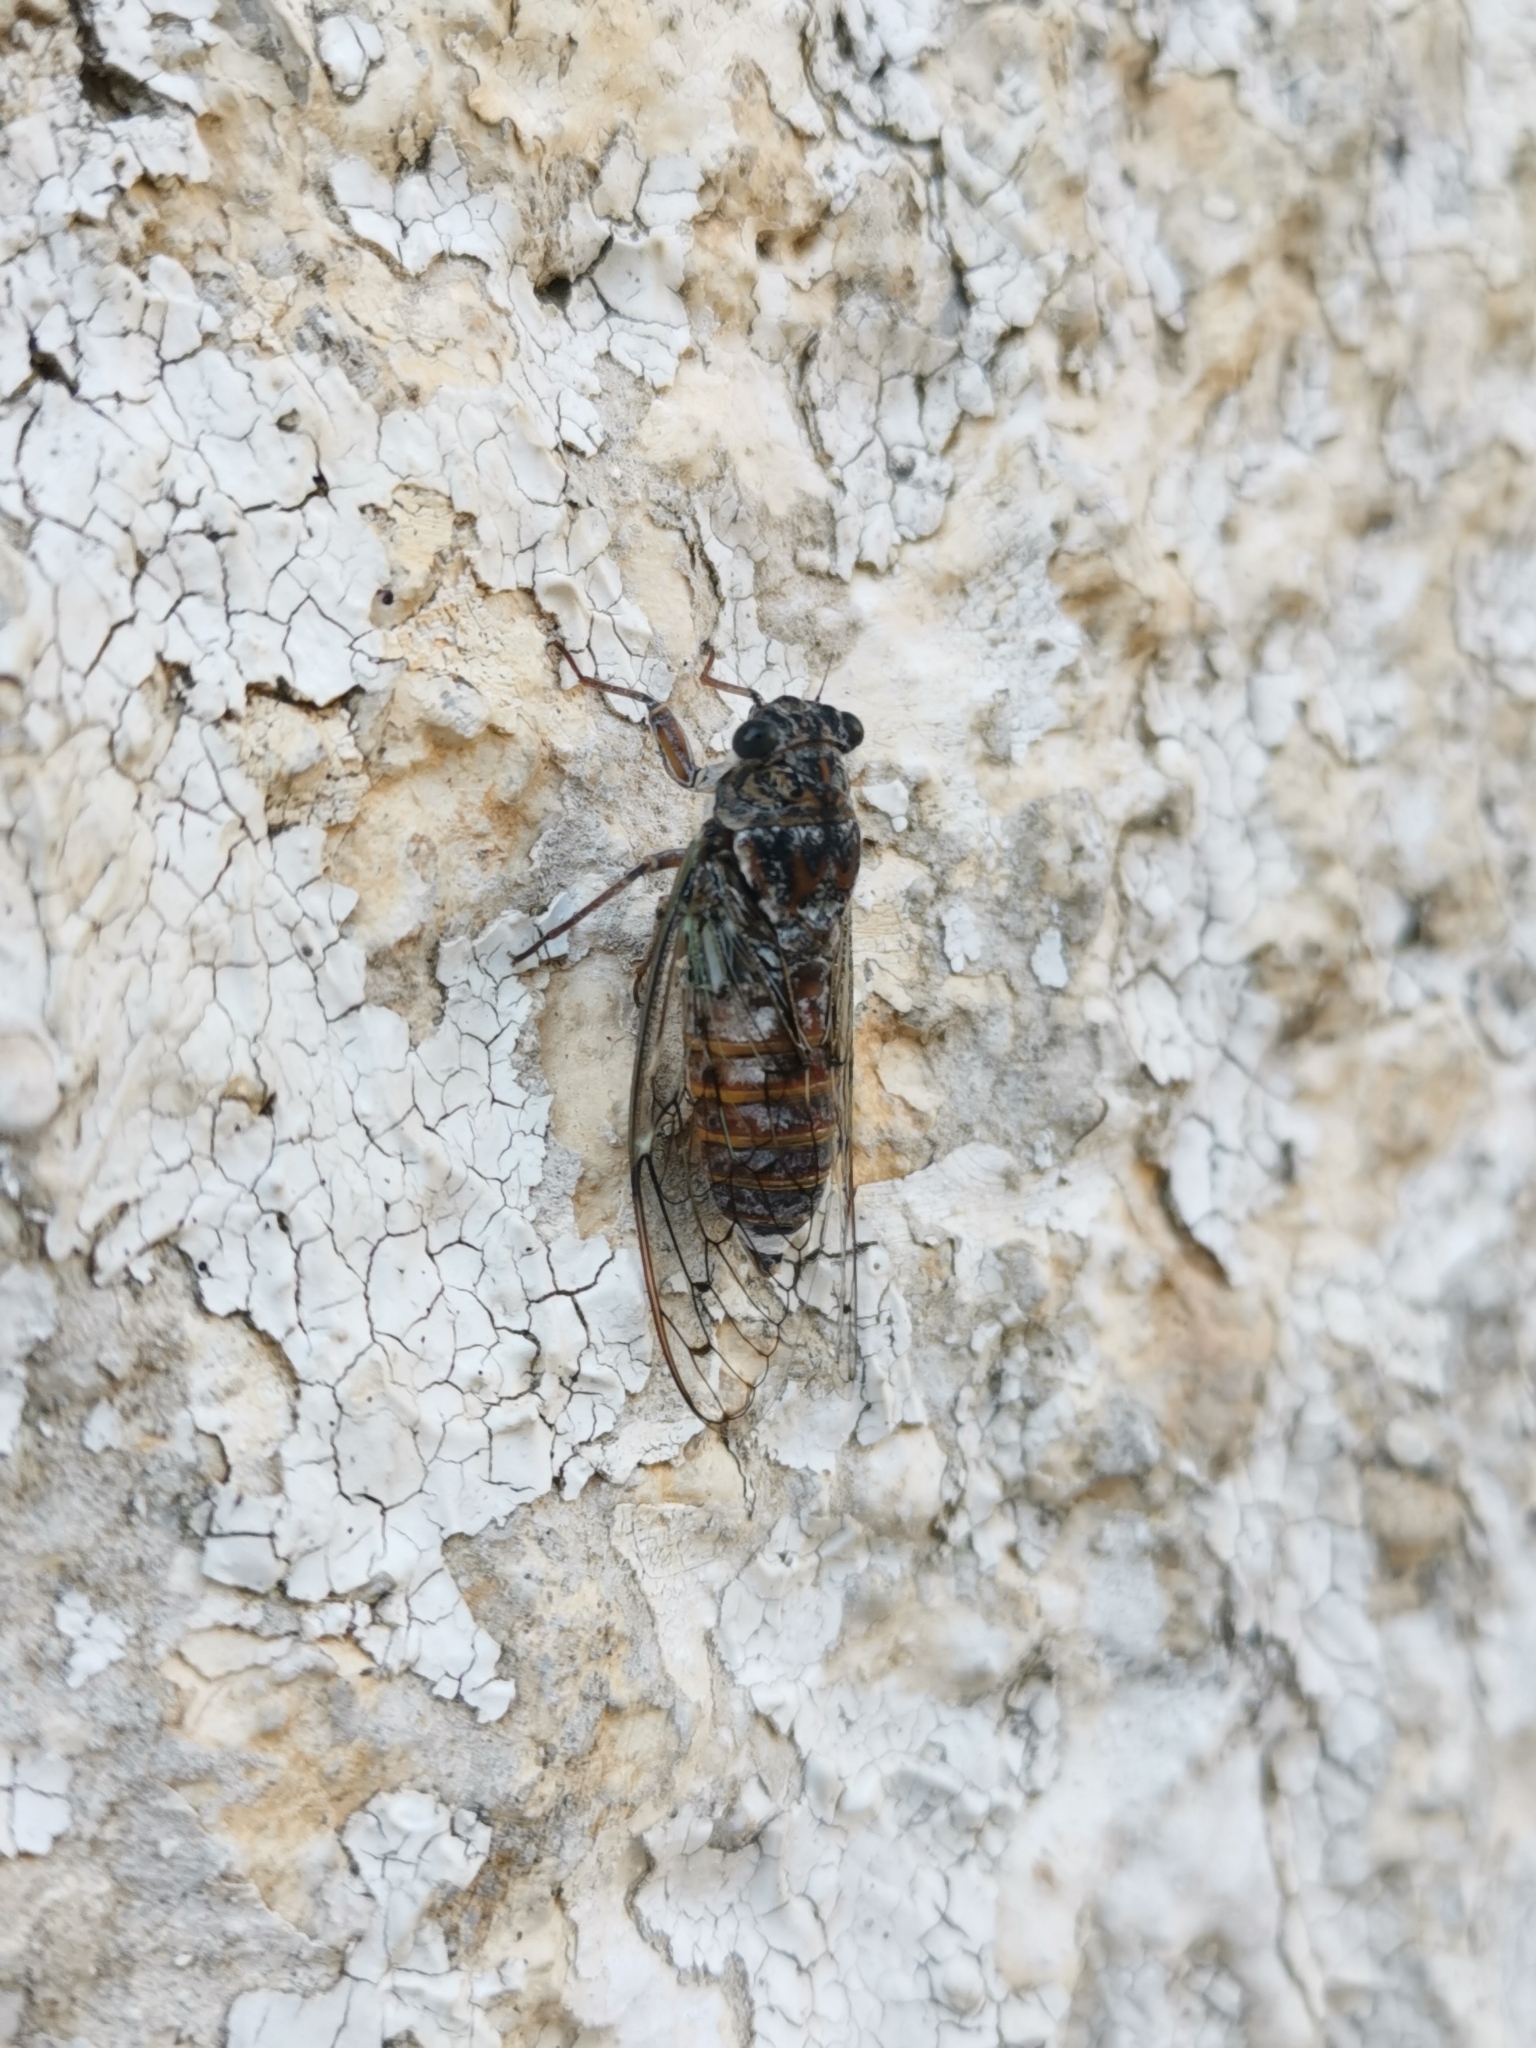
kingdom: Animalia
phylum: Arthropoda
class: Insecta
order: Hemiptera
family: Cicadidae
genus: Cicada
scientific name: Cicada orni
